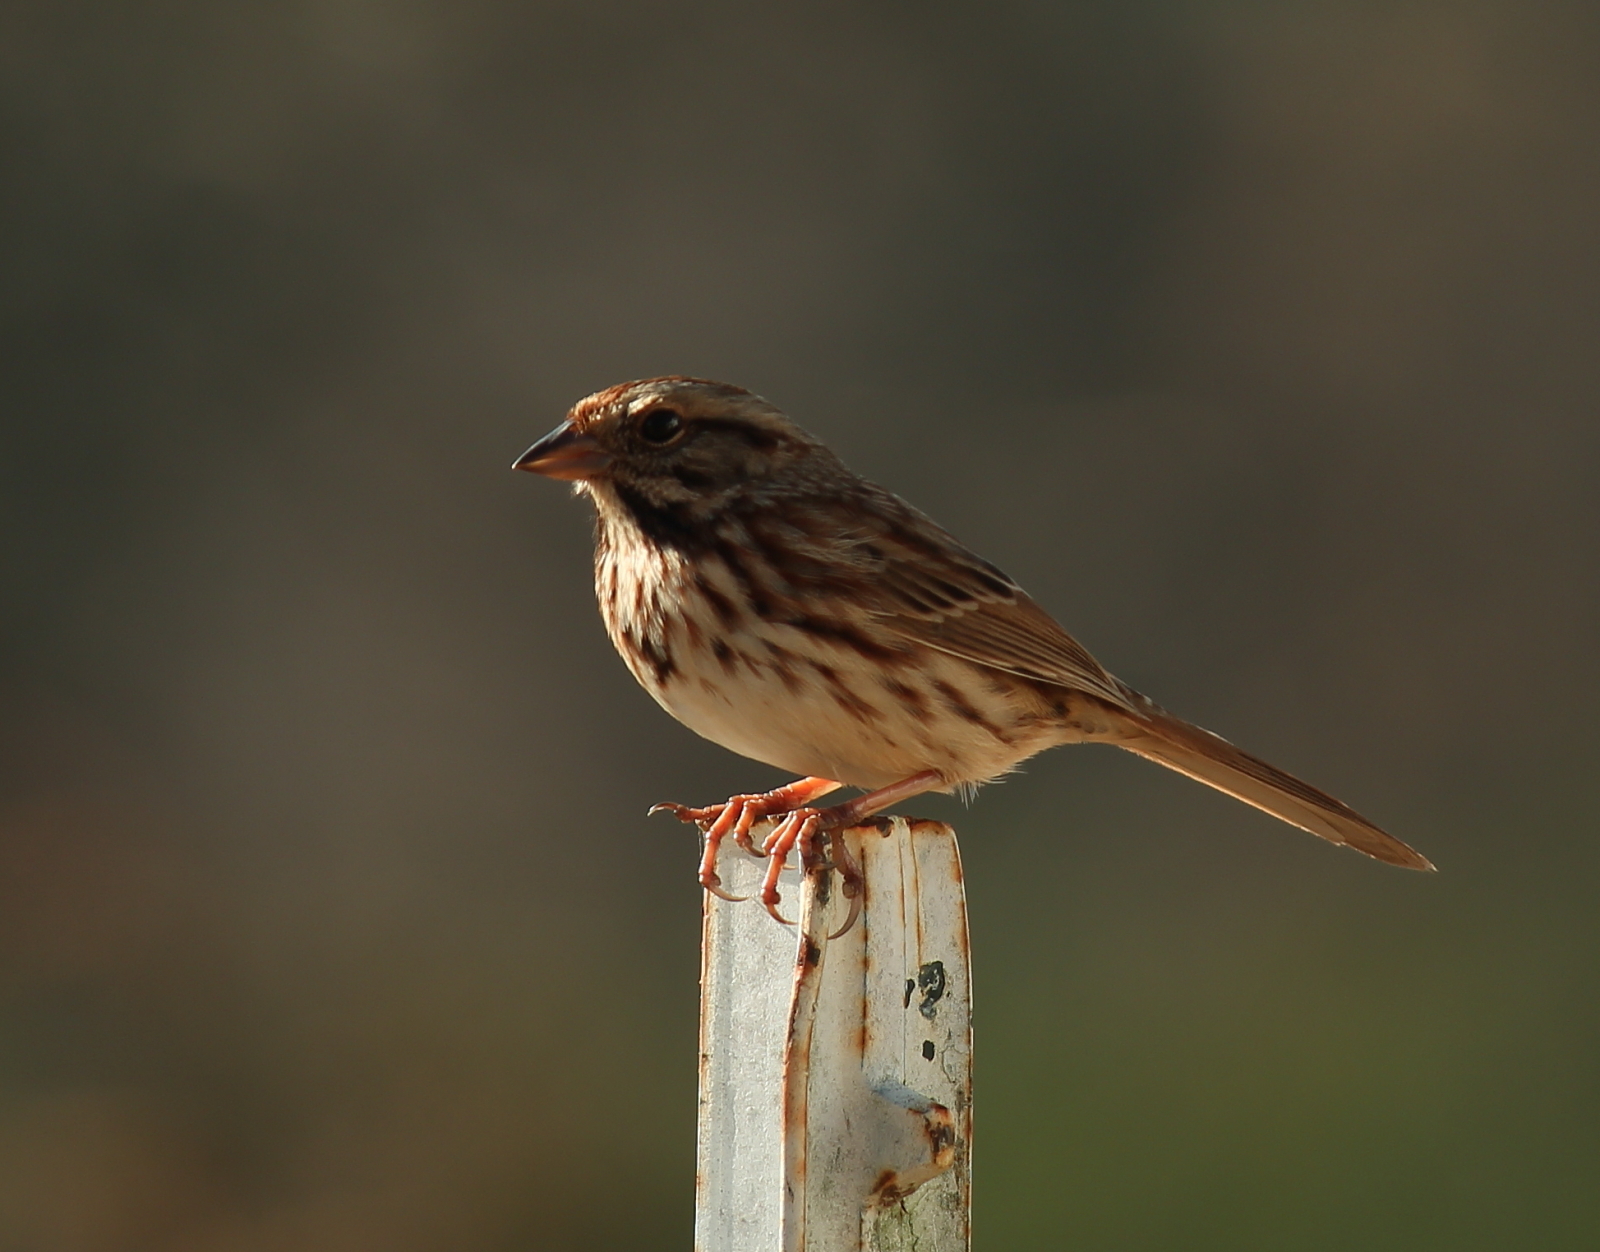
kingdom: Animalia
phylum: Chordata
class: Aves
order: Passeriformes
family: Passerellidae
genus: Melospiza
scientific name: Melospiza melodia
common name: Song sparrow
